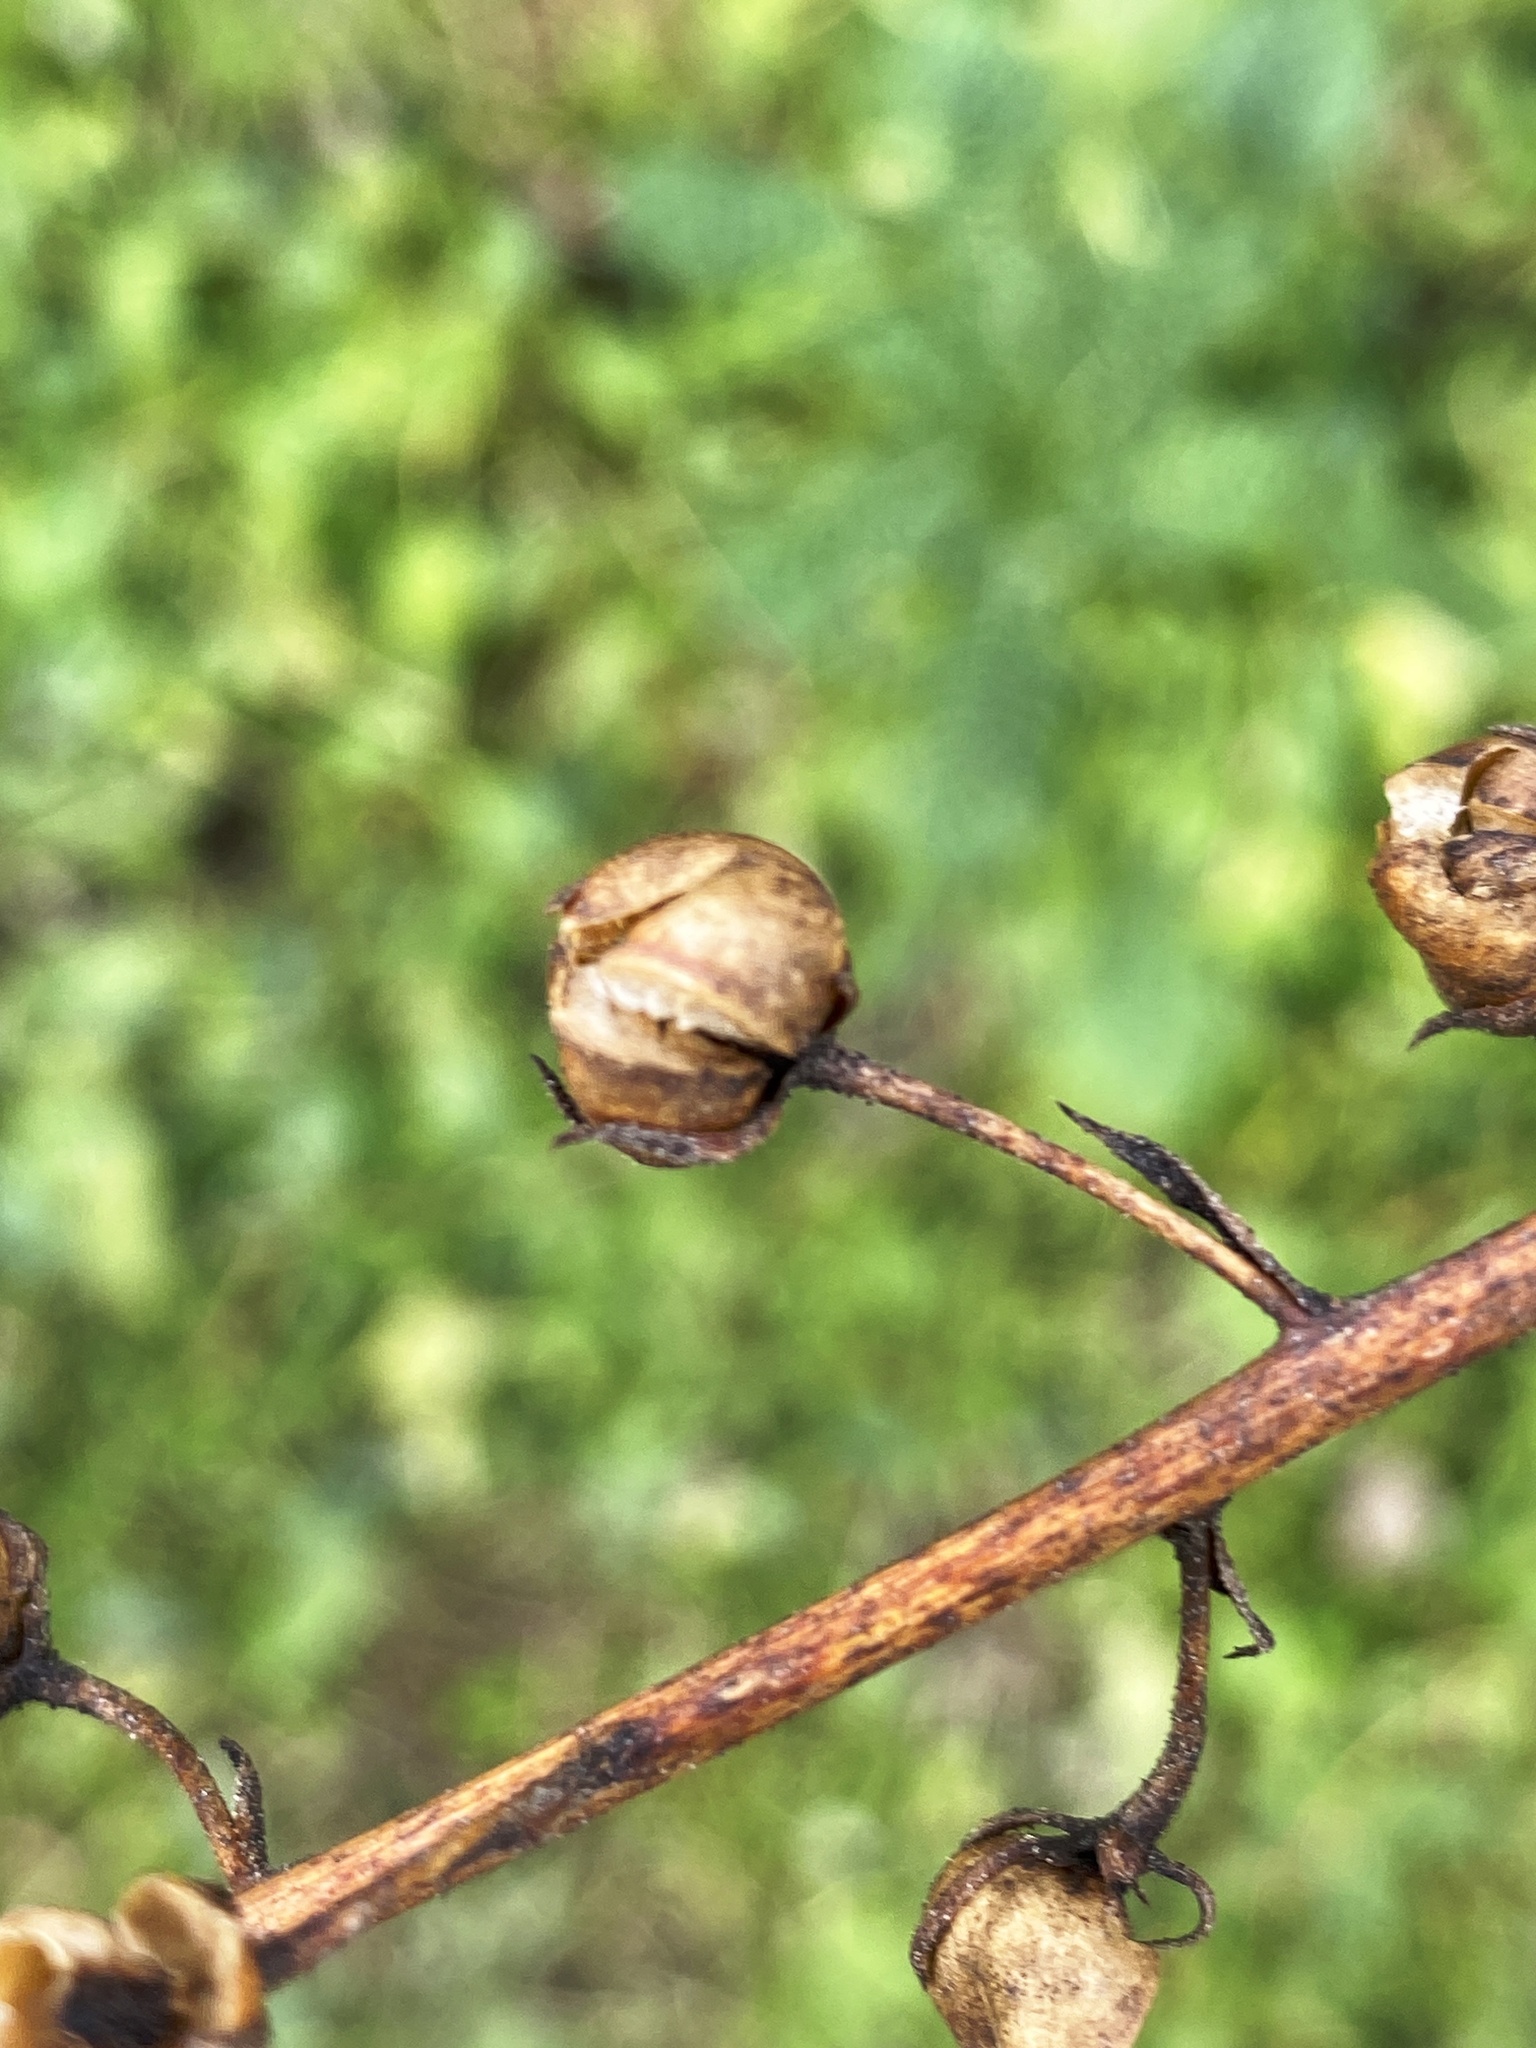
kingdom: Plantae
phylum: Tracheophyta
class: Magnoliopsida
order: Lamiales
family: Scrophulariaceae
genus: Verbascum
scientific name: Verbascum blattaria
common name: Moth mullein
